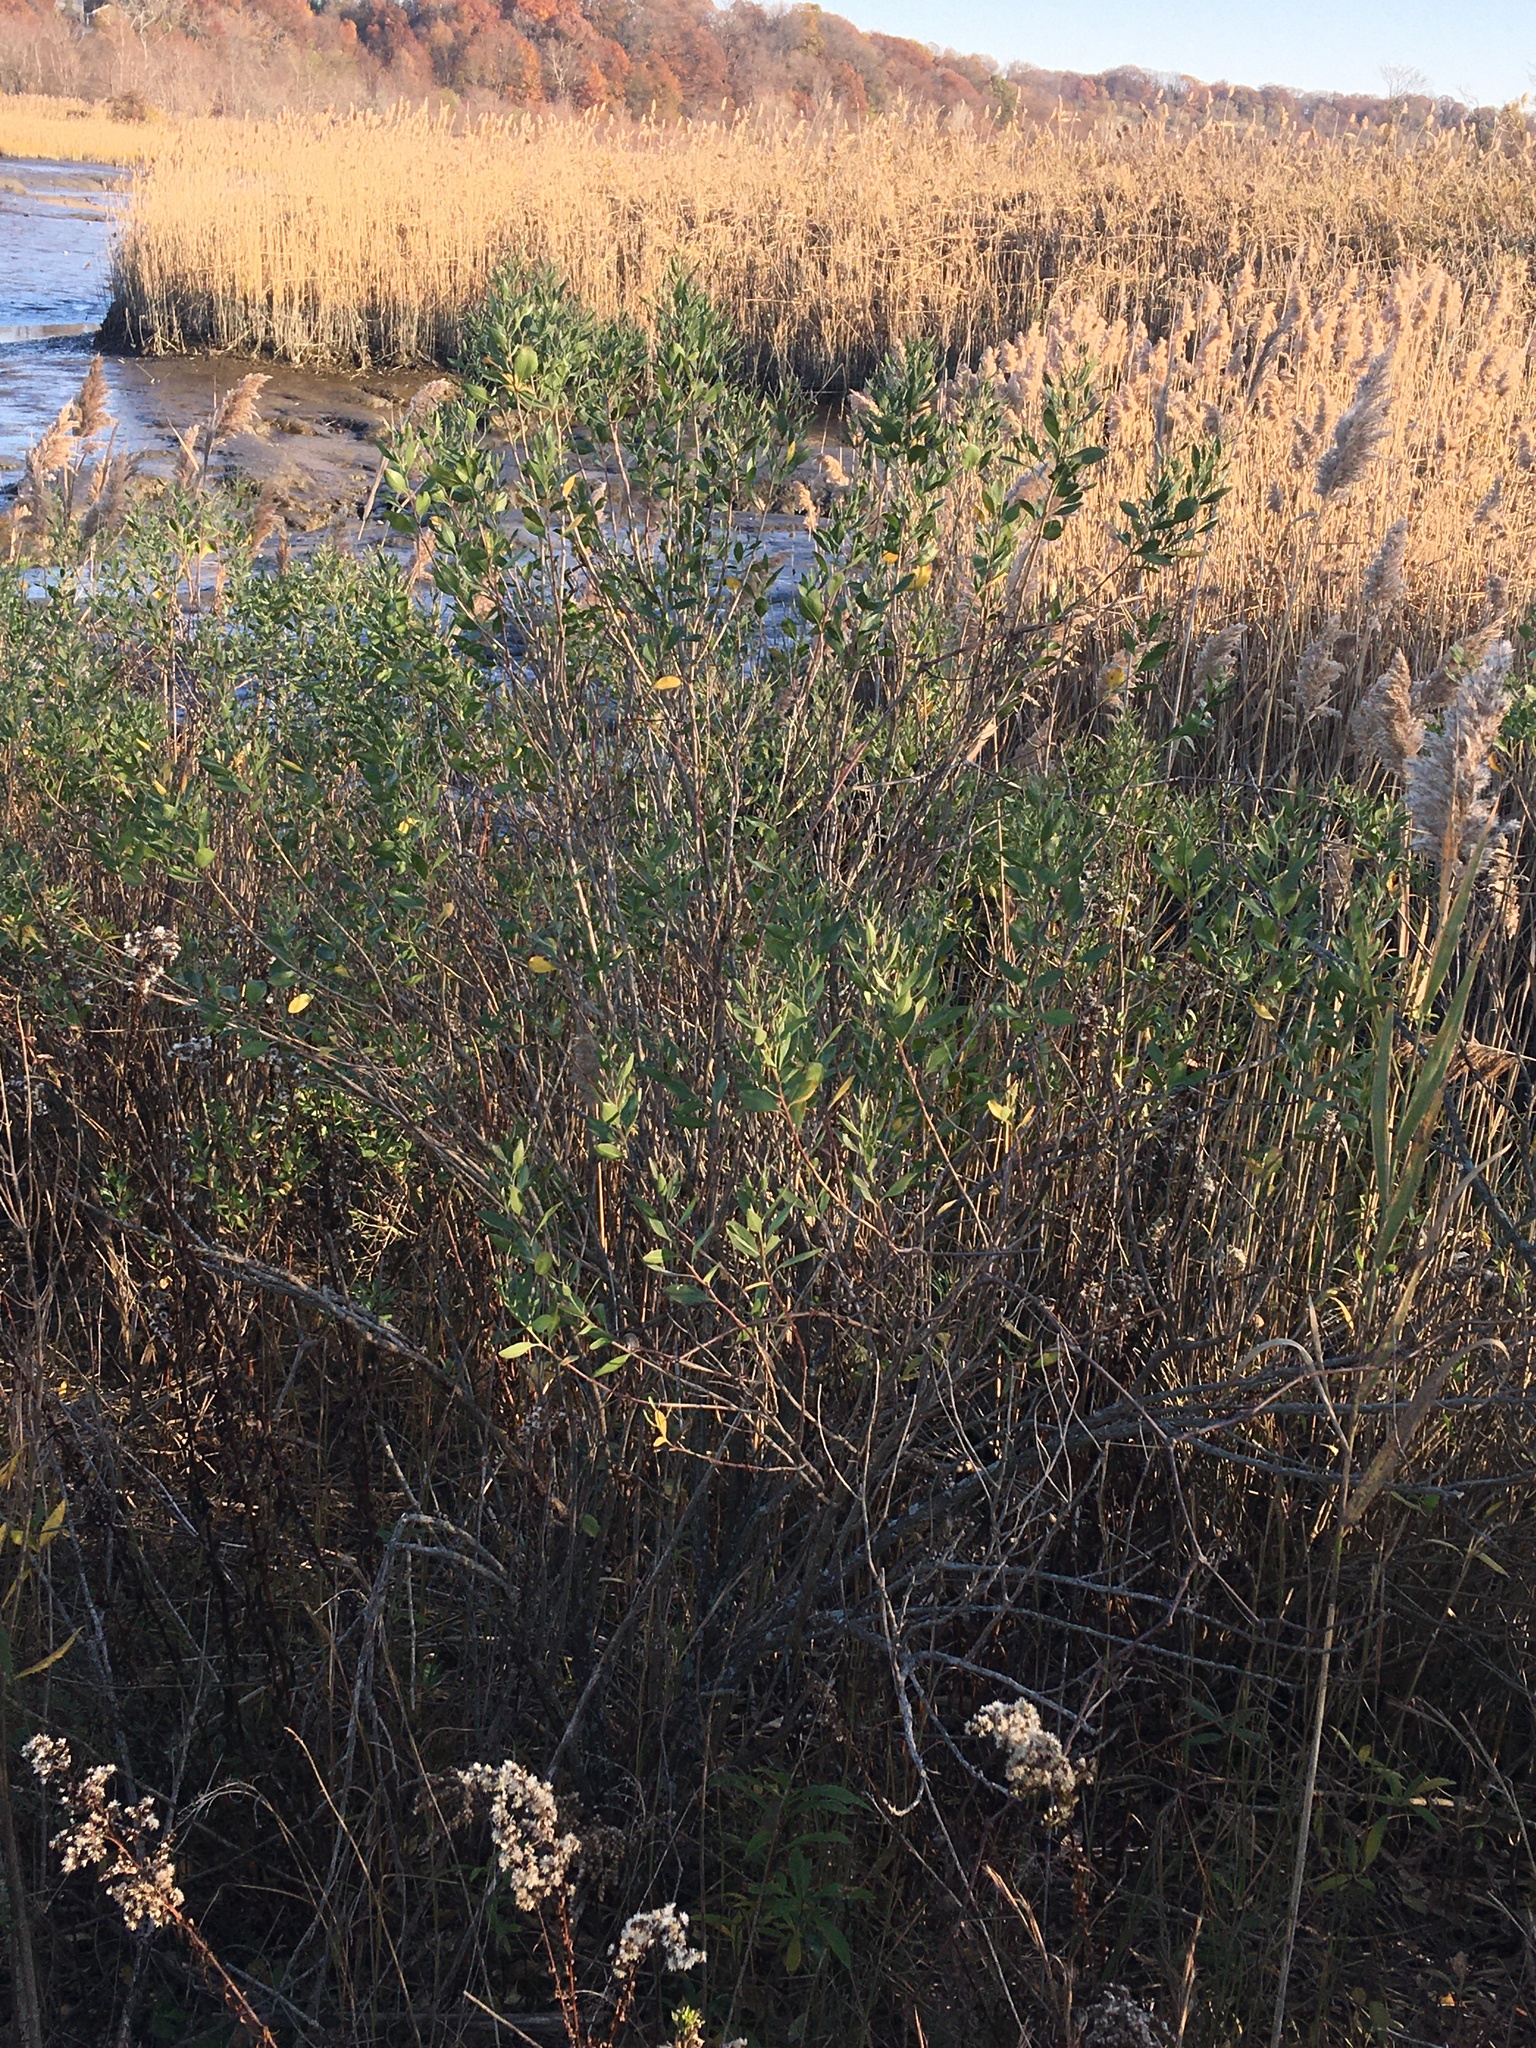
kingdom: Plantae
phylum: Tracheophyta
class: Magnoliopsida
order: Asterales
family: Asteraceae
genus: Baccharis
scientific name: Baccharis halimifolia
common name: Eastern baccharis
